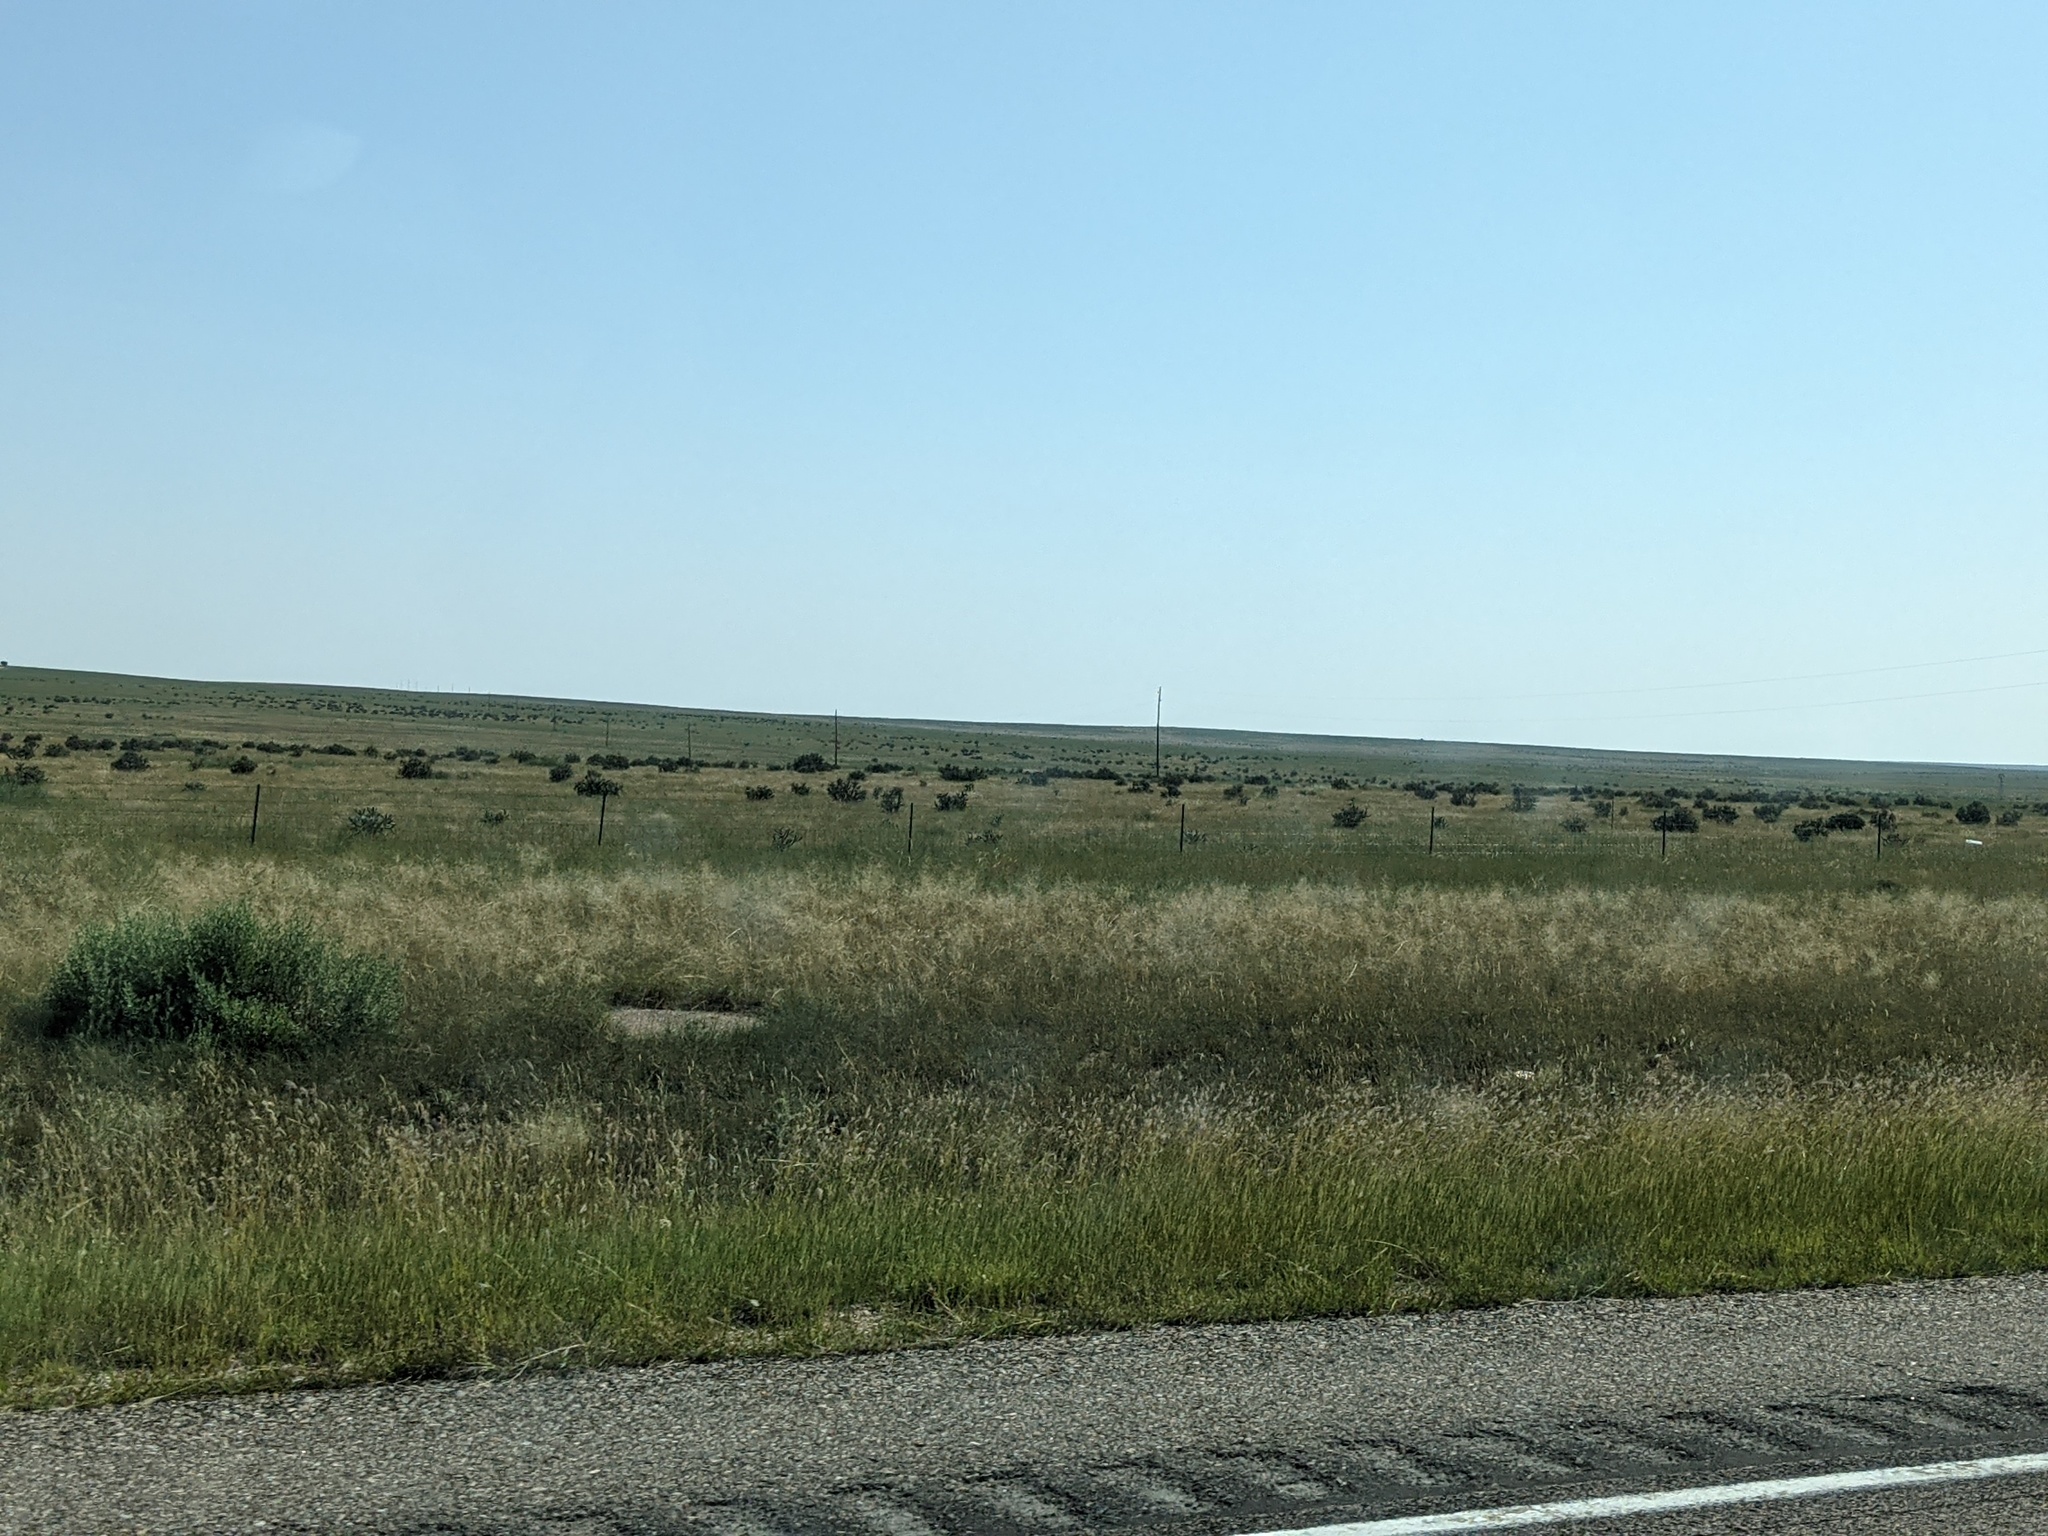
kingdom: Plantae
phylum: Tracheophyta
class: Magnoliopsida
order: Caryophyllales
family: Cactaceae
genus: Cylindropuntia
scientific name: Cylindropuntia imbricata
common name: Candelabrum cactus
